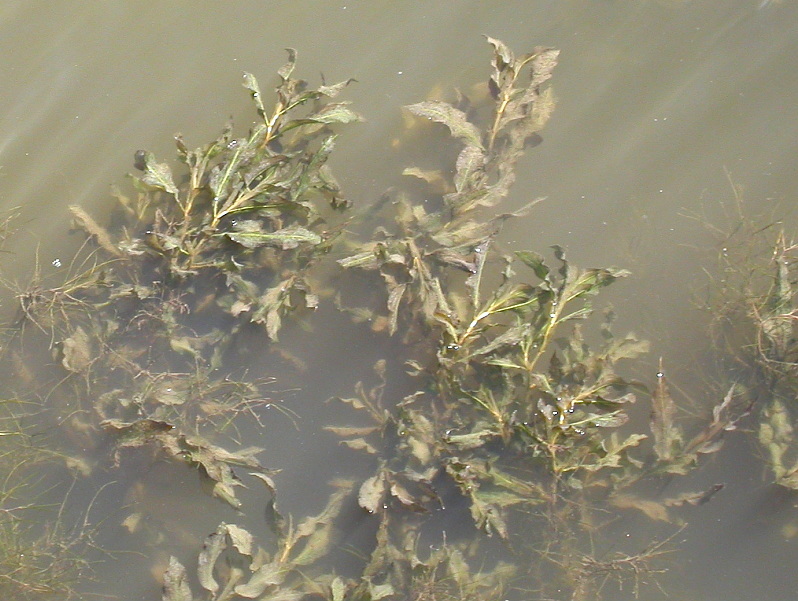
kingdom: Plantae
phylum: Tracheophyta
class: Liliopsida
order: Alismatales
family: Potamogetonaceae
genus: Potamogeton
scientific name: Potamogeton lucens
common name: Shining pondweed
